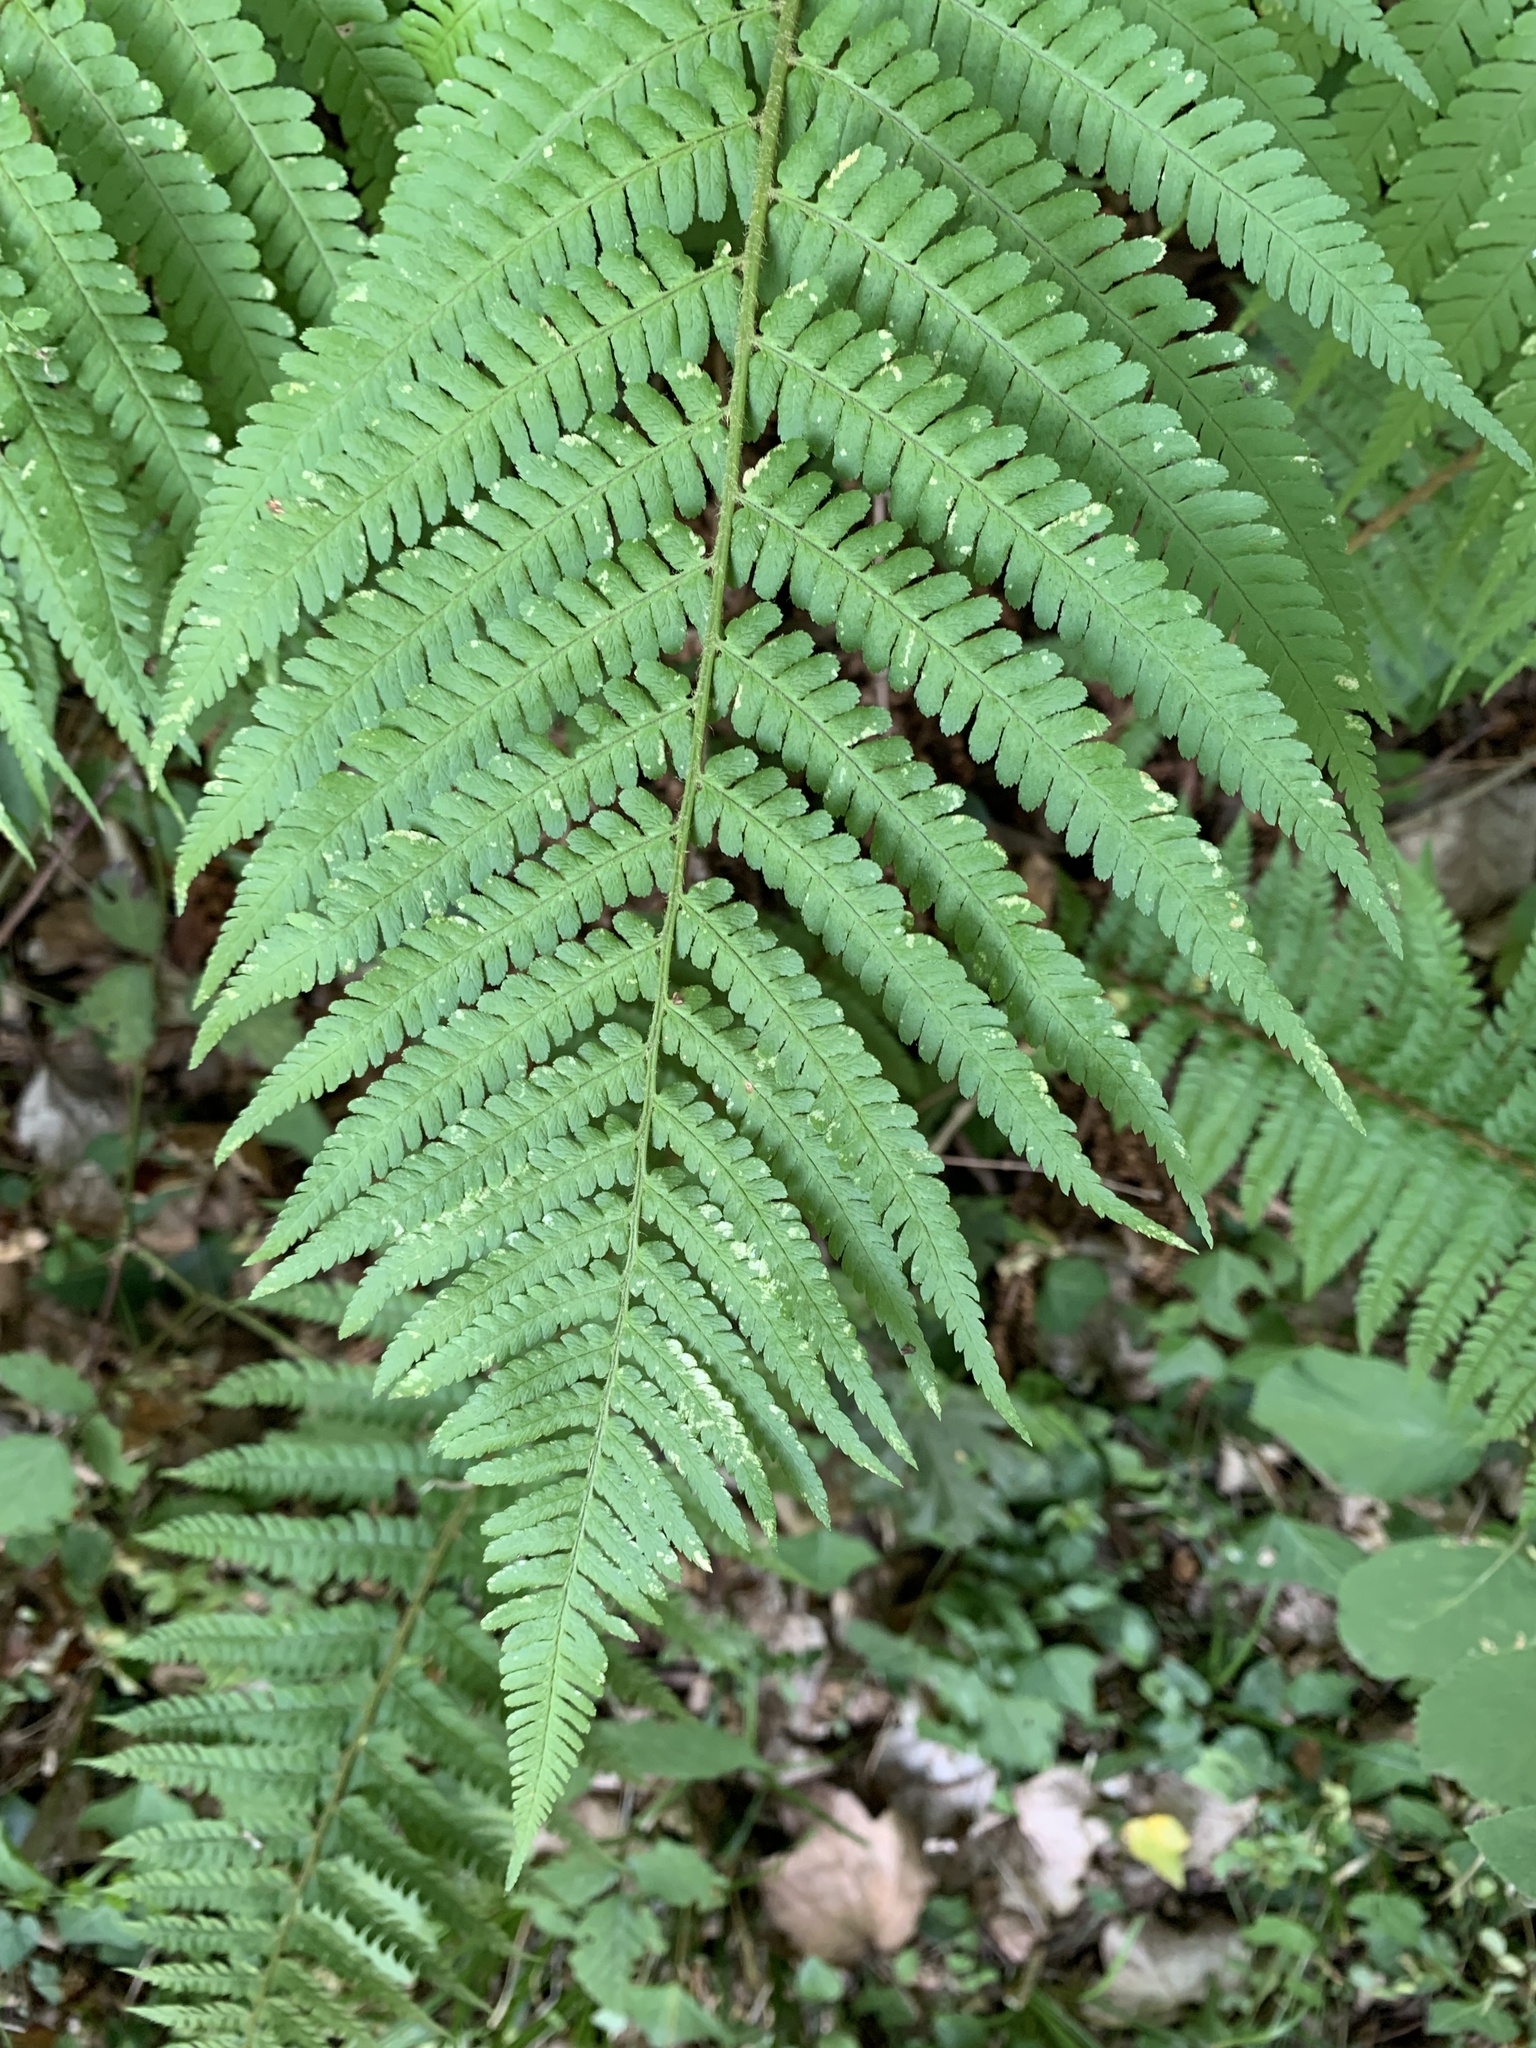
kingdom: Plantae
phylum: Tracheophyta
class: Polypodiopsida
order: Polypodiales
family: Dryopteridaceae
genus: Dryopteris
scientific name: Dryopteris filix-mas
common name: Male fern
